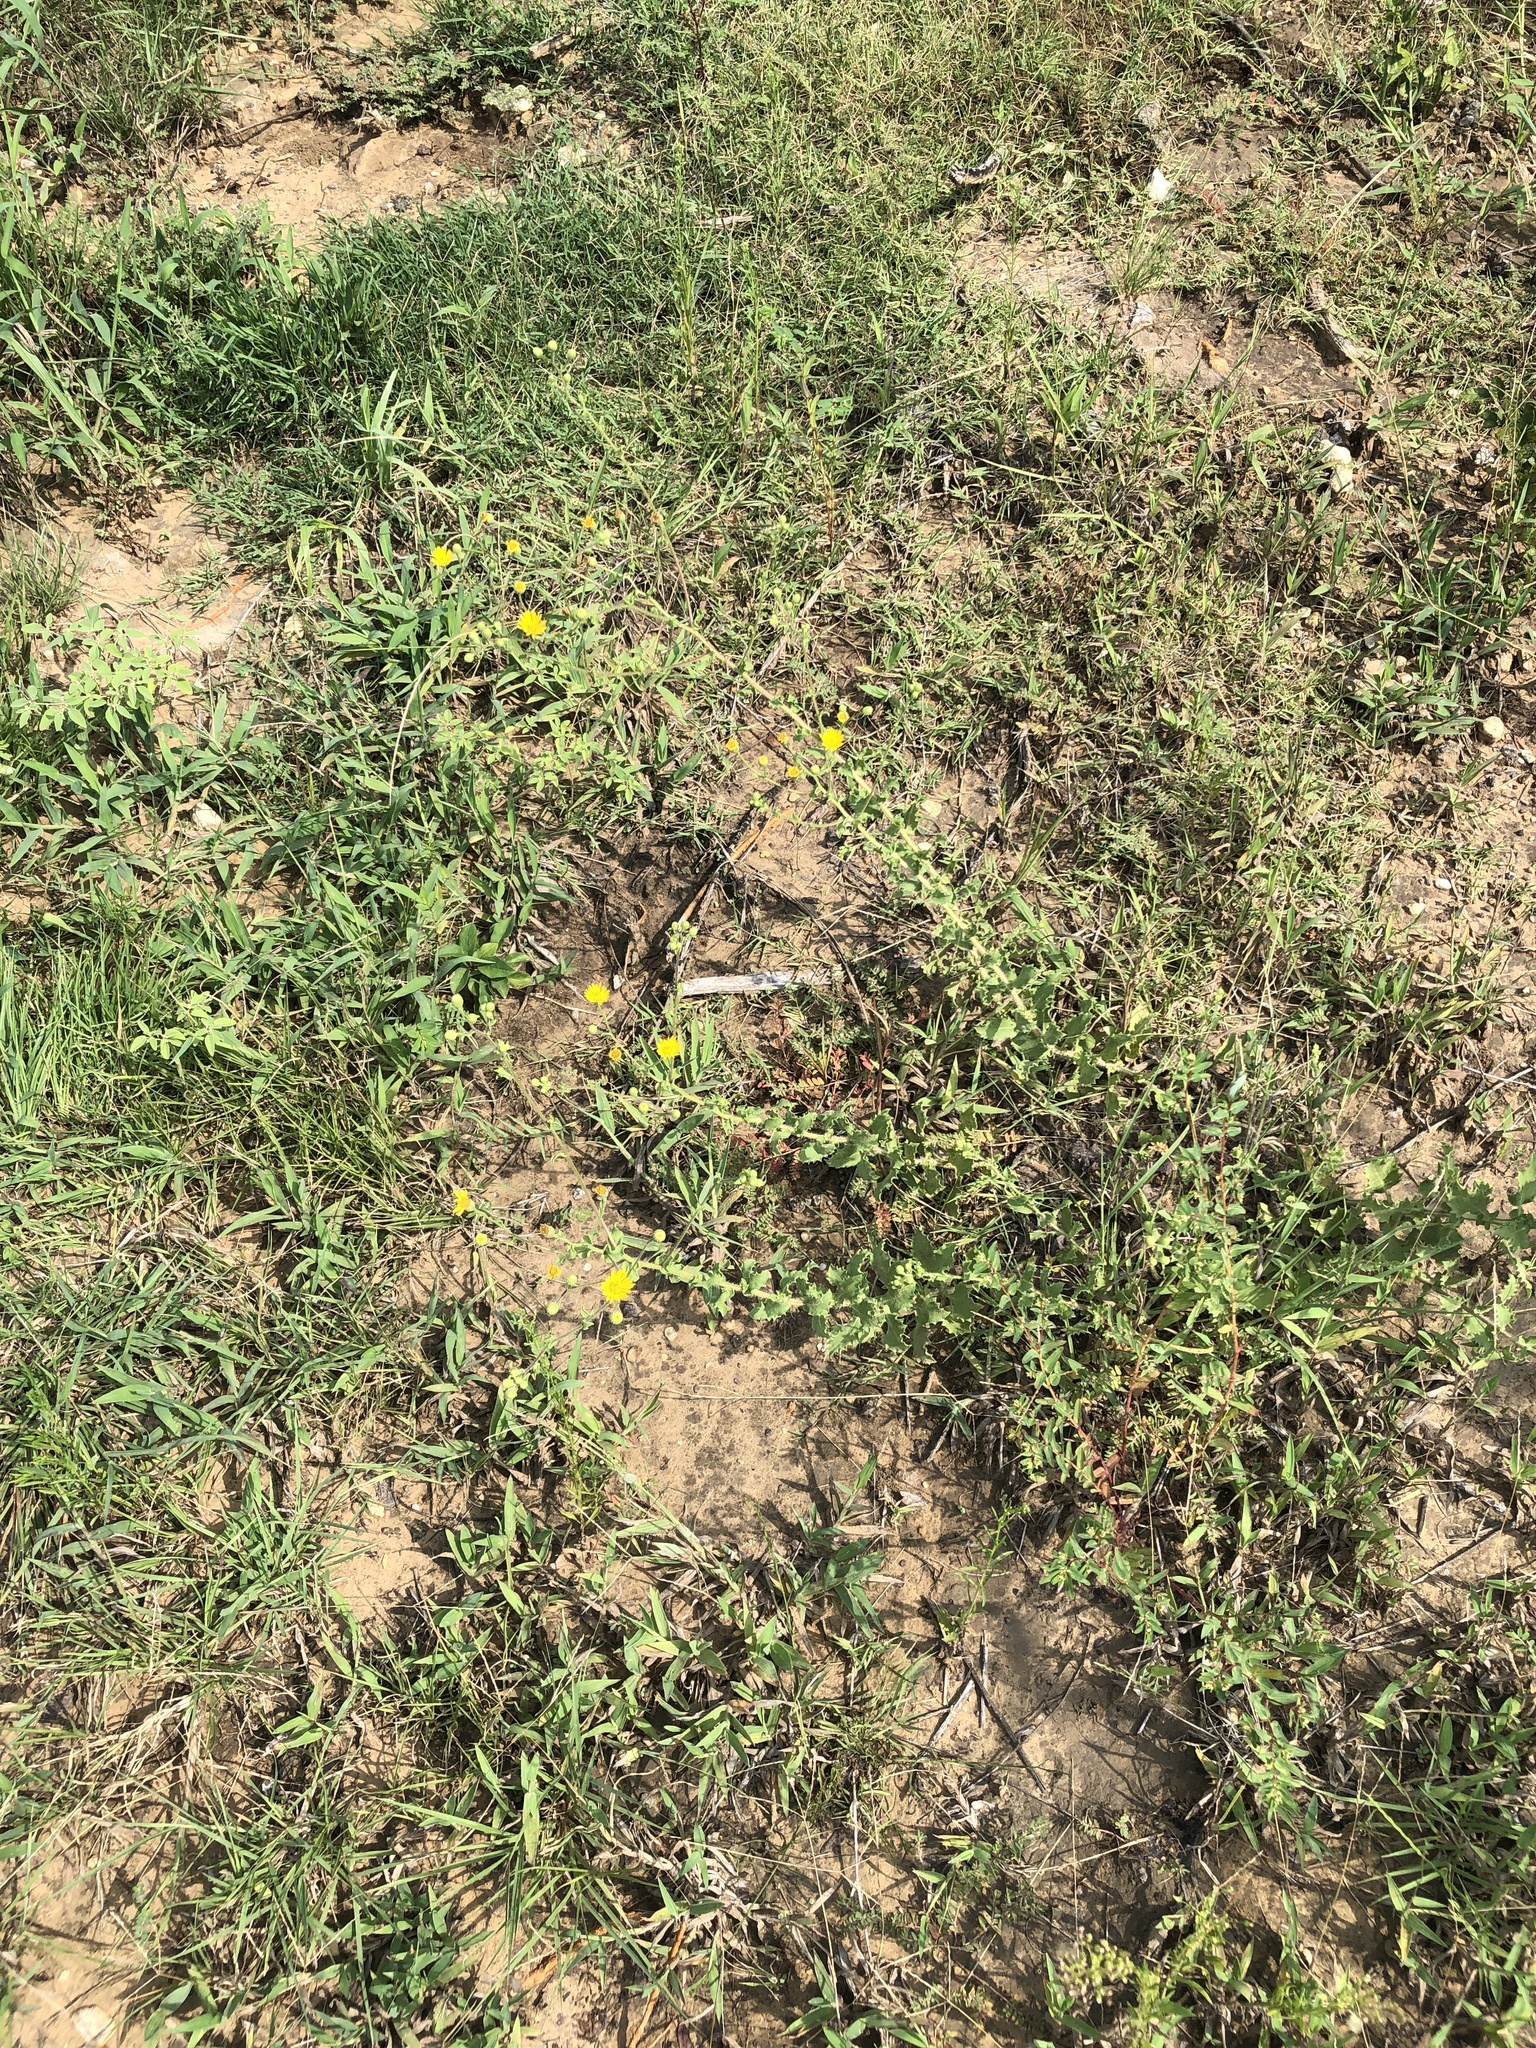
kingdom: Plantae
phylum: Tracheophyta
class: Magnoliopsida
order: Asterales
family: Asteraceae
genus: Heterotheca
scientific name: Heterotheca subaxillaris
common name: Camphorweed
